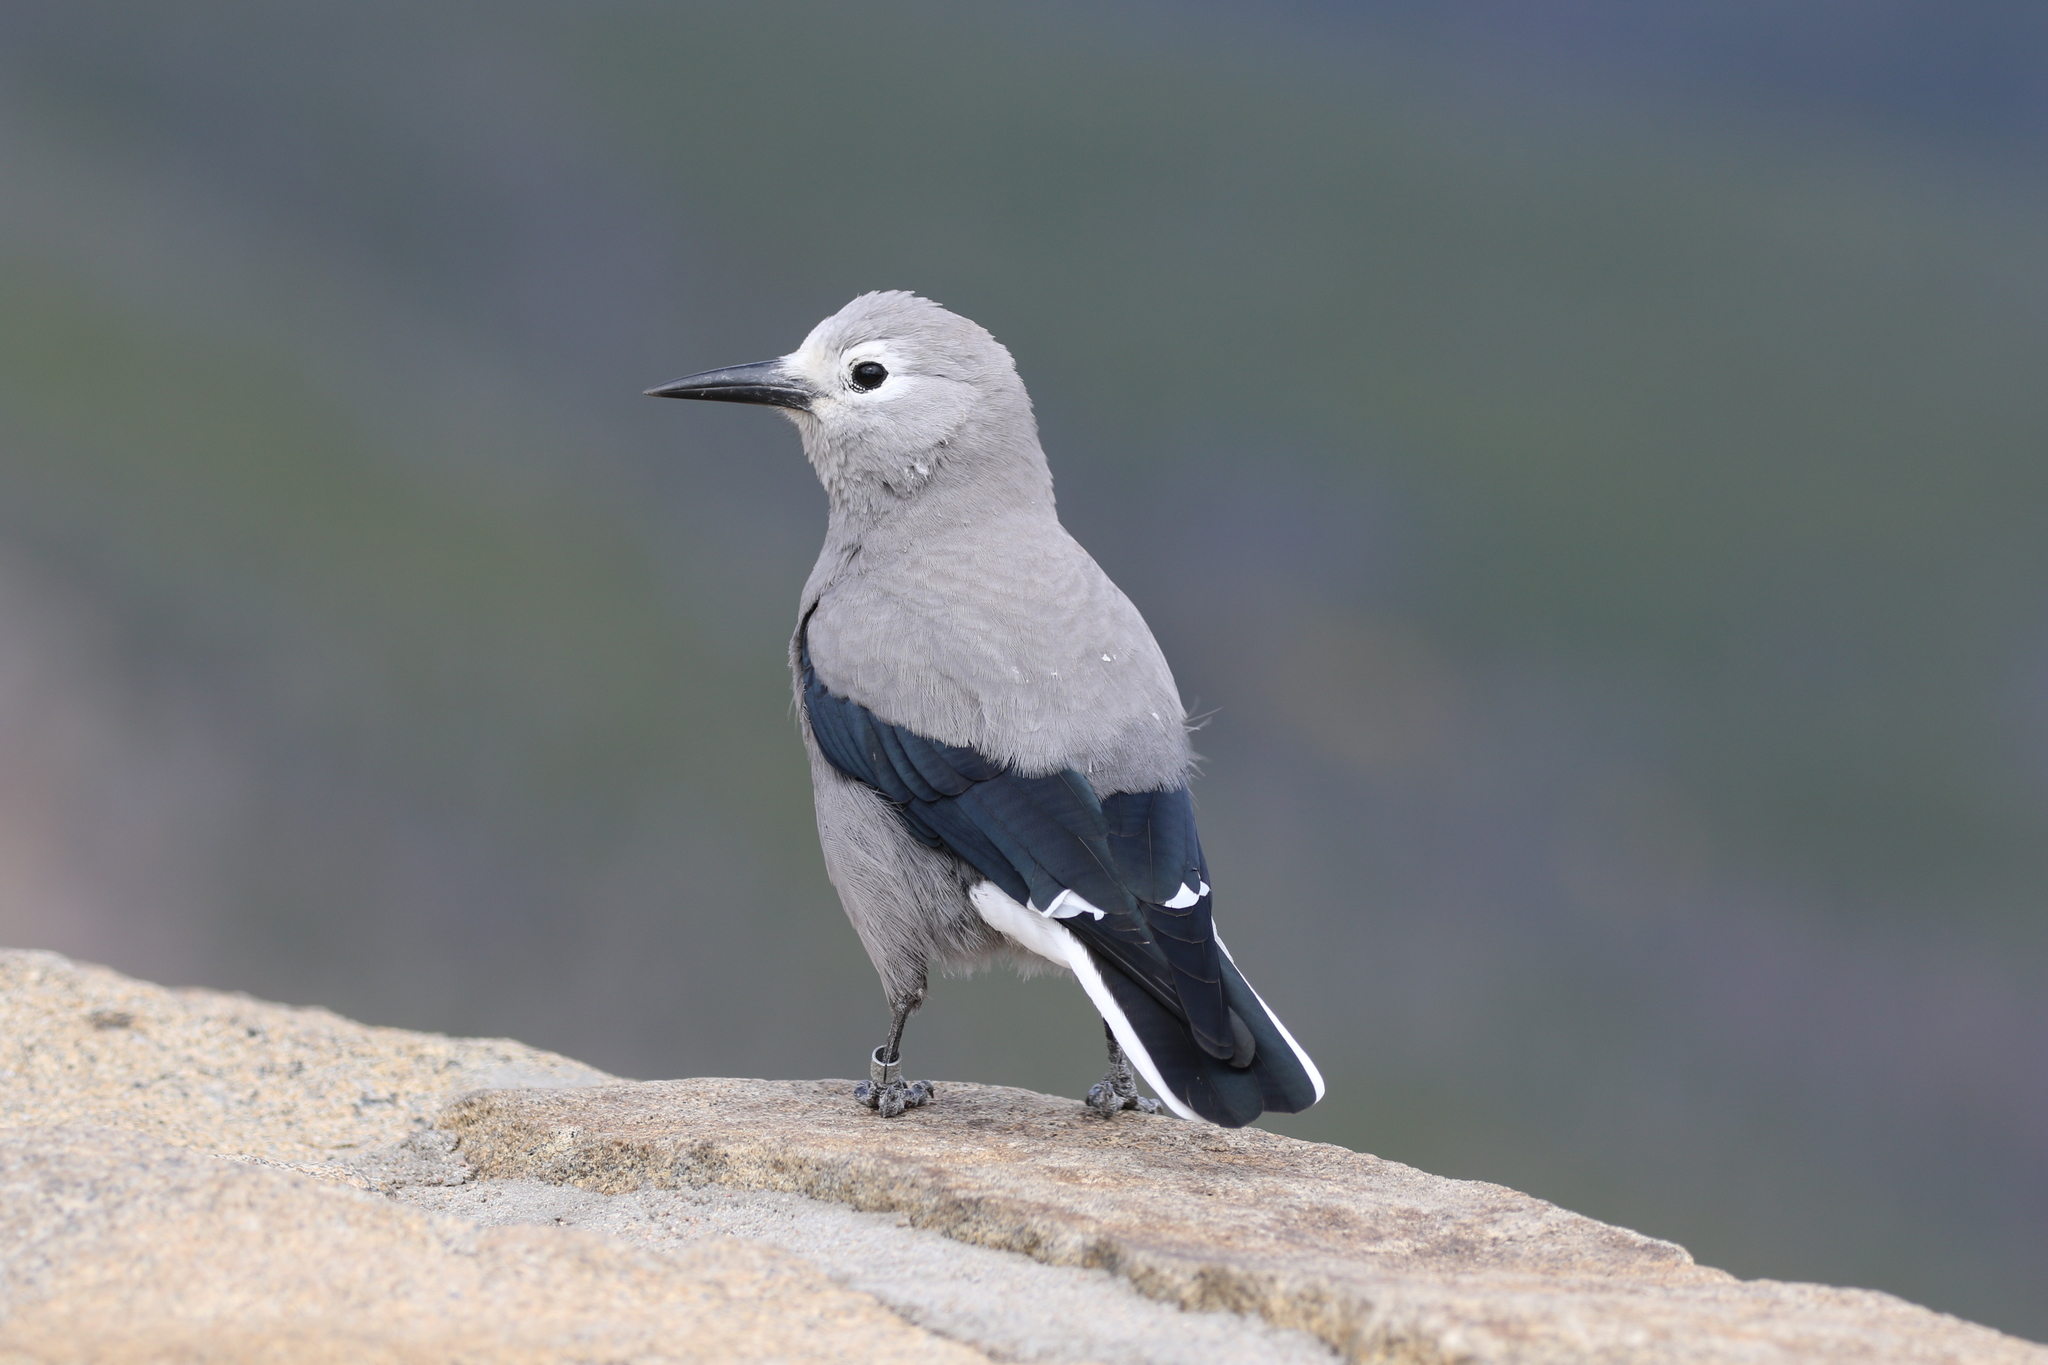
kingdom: Animalia
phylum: Chordata
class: Aves
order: Passeriformes
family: Corvidae
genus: Nucifraga
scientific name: Nucifraga columbiana
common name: Clark's nutcracker
